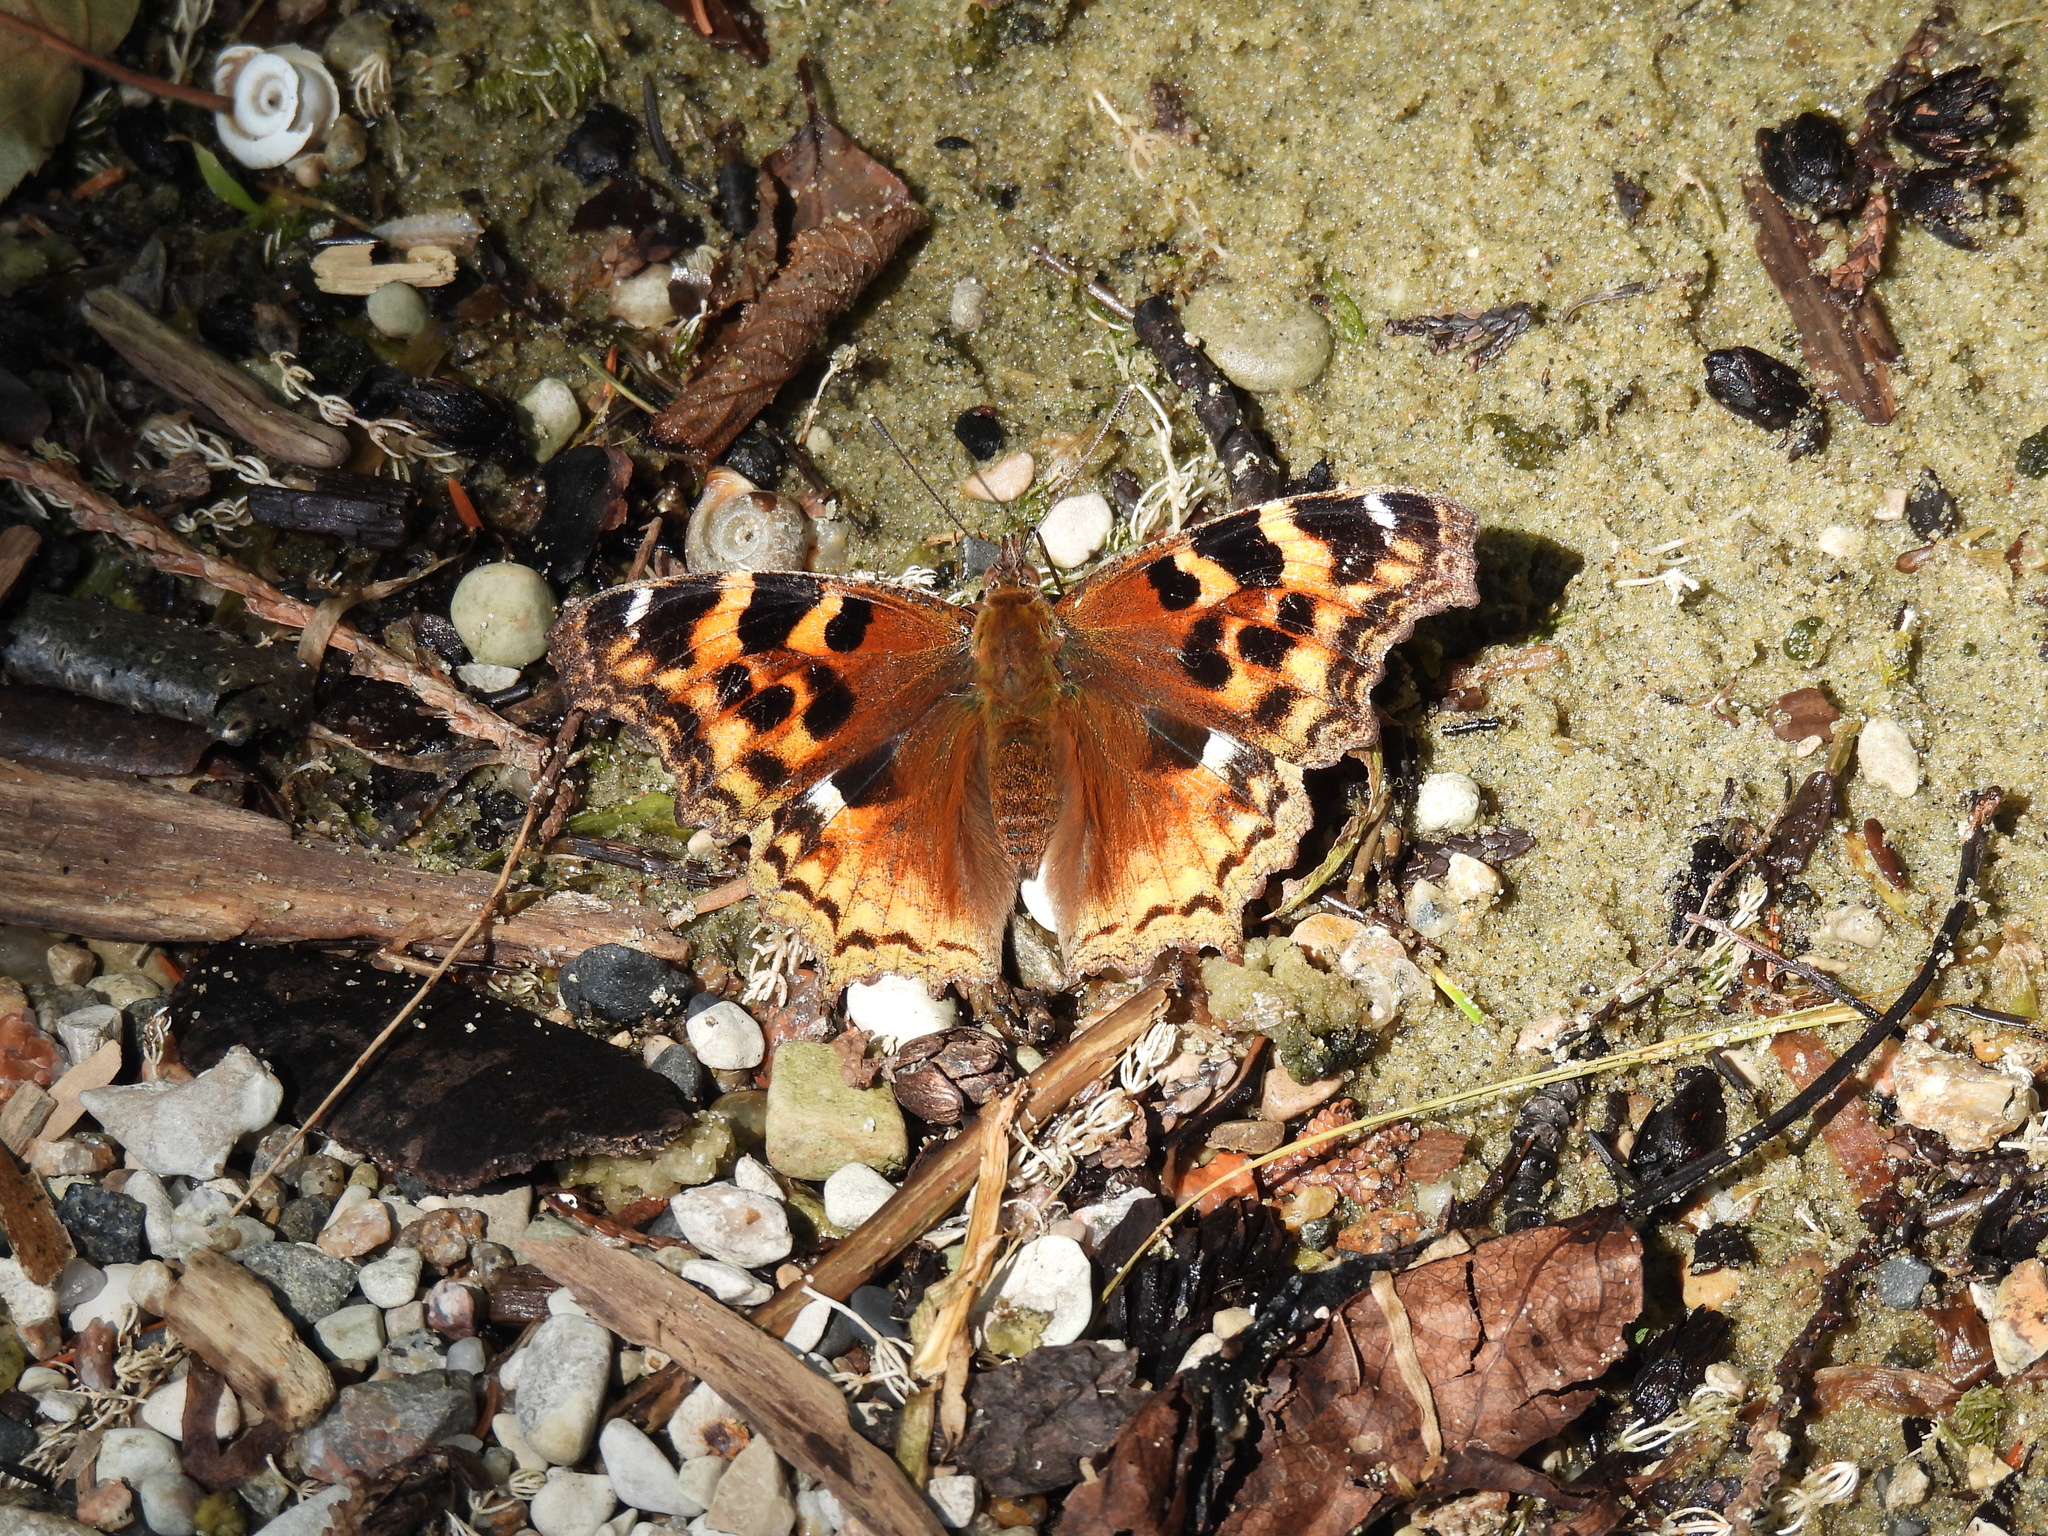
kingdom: Animalia
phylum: Arthropoda
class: Insecta
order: Lepidoptera
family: Nymphalidae
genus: Polygonia
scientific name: Polygonia vaualbum
